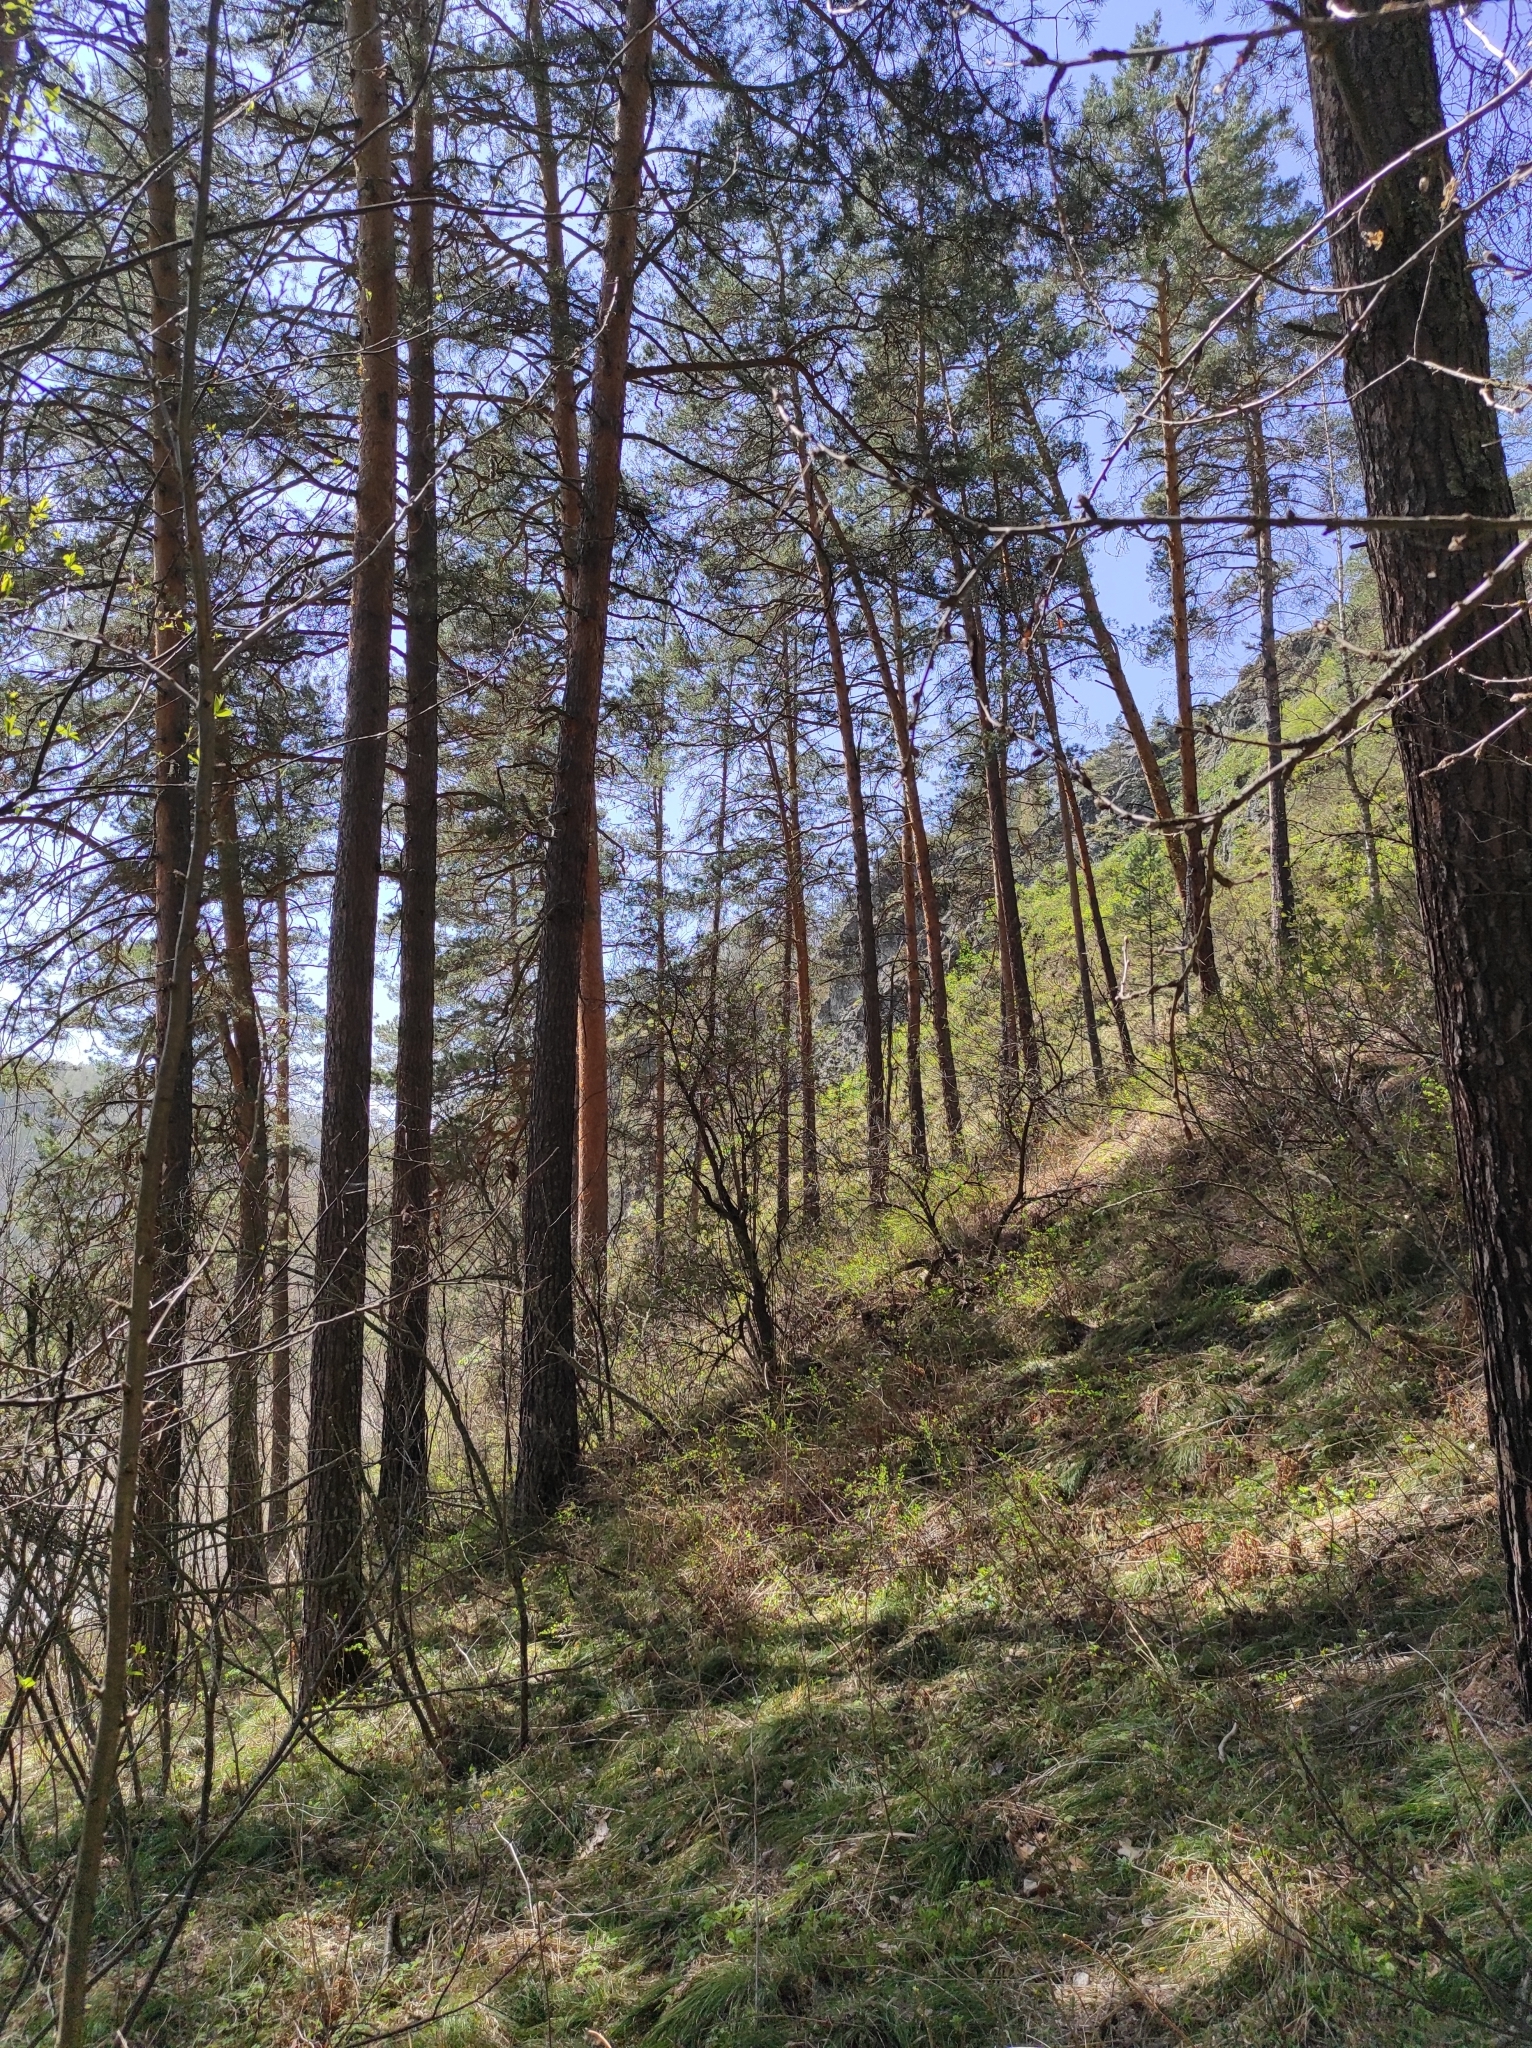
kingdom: Plantae
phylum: Tracheophyta
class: Pinopsida
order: Pinales
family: Pinaceae
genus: Pinus
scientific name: Pinus sylvestris
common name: Scots pine
